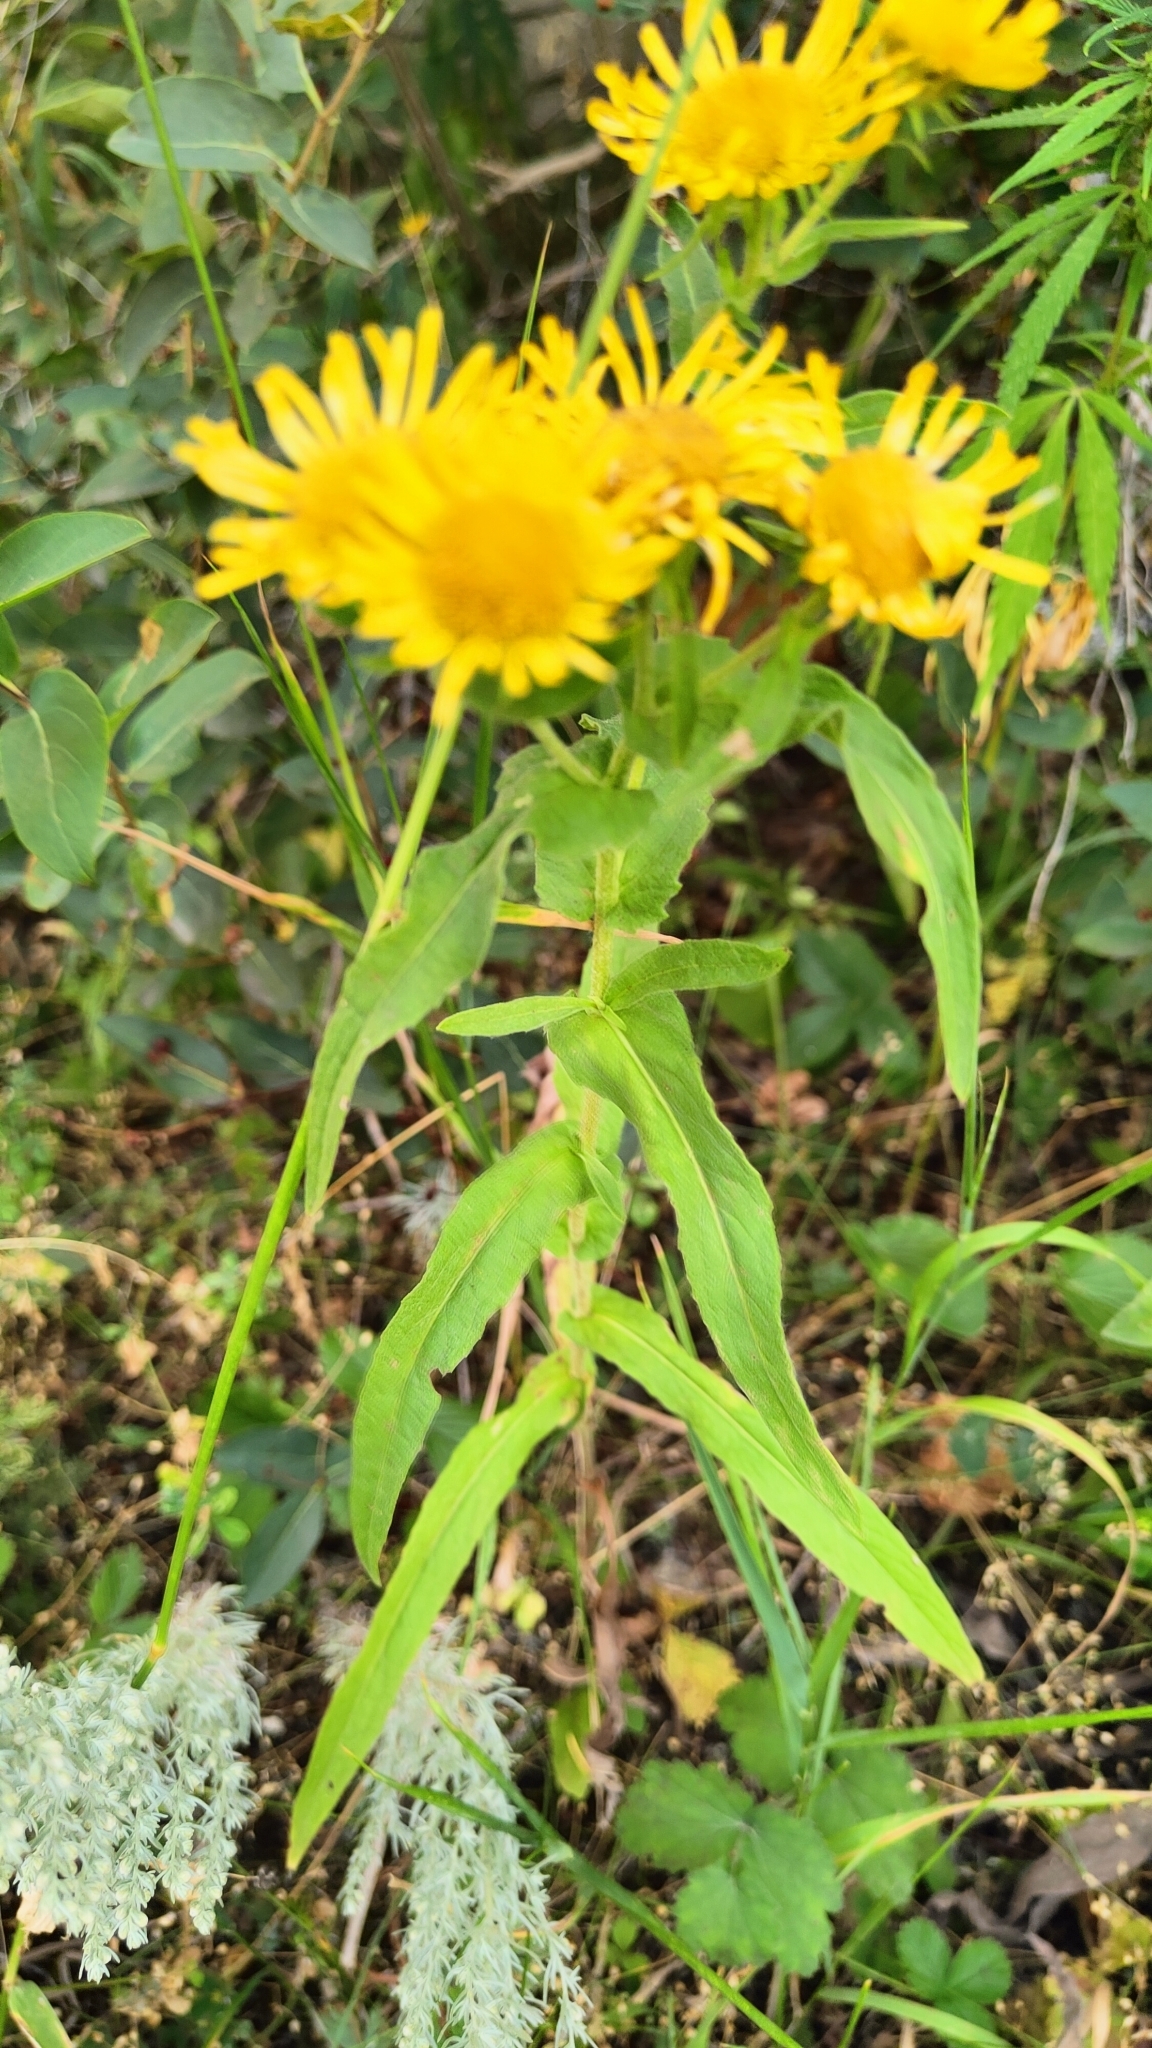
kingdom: Plantae
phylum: Tracheophyta
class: Magnoliopsida
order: Asterales
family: Asteraceae
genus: Pentanema
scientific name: Pentanema britannicum
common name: British elecampane
